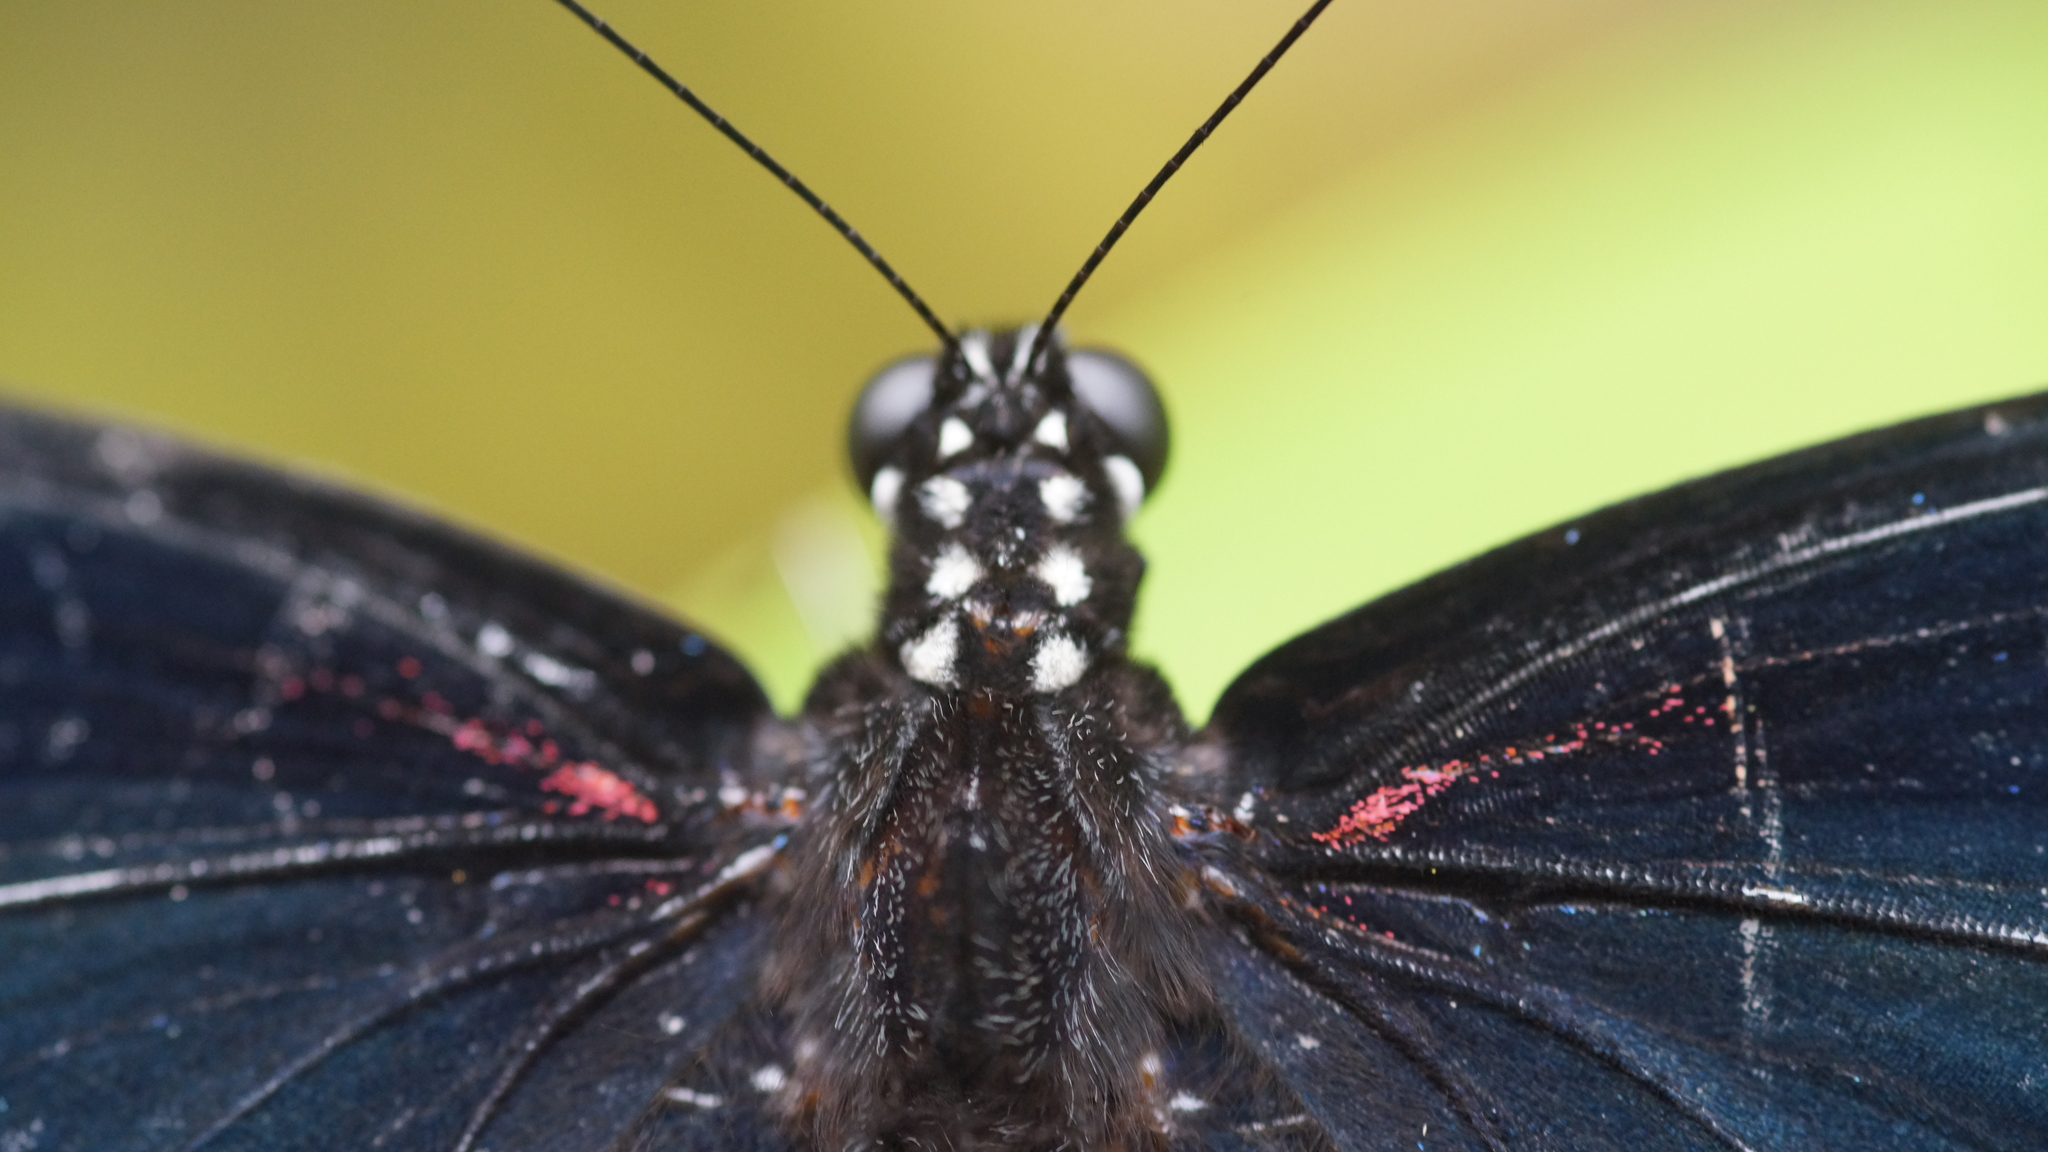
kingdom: Animalia
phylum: Arthropoda
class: Insecta
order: Lepidoptera
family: Papilionidae
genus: Papilio
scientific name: Papilio memnon
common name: Great mormon
